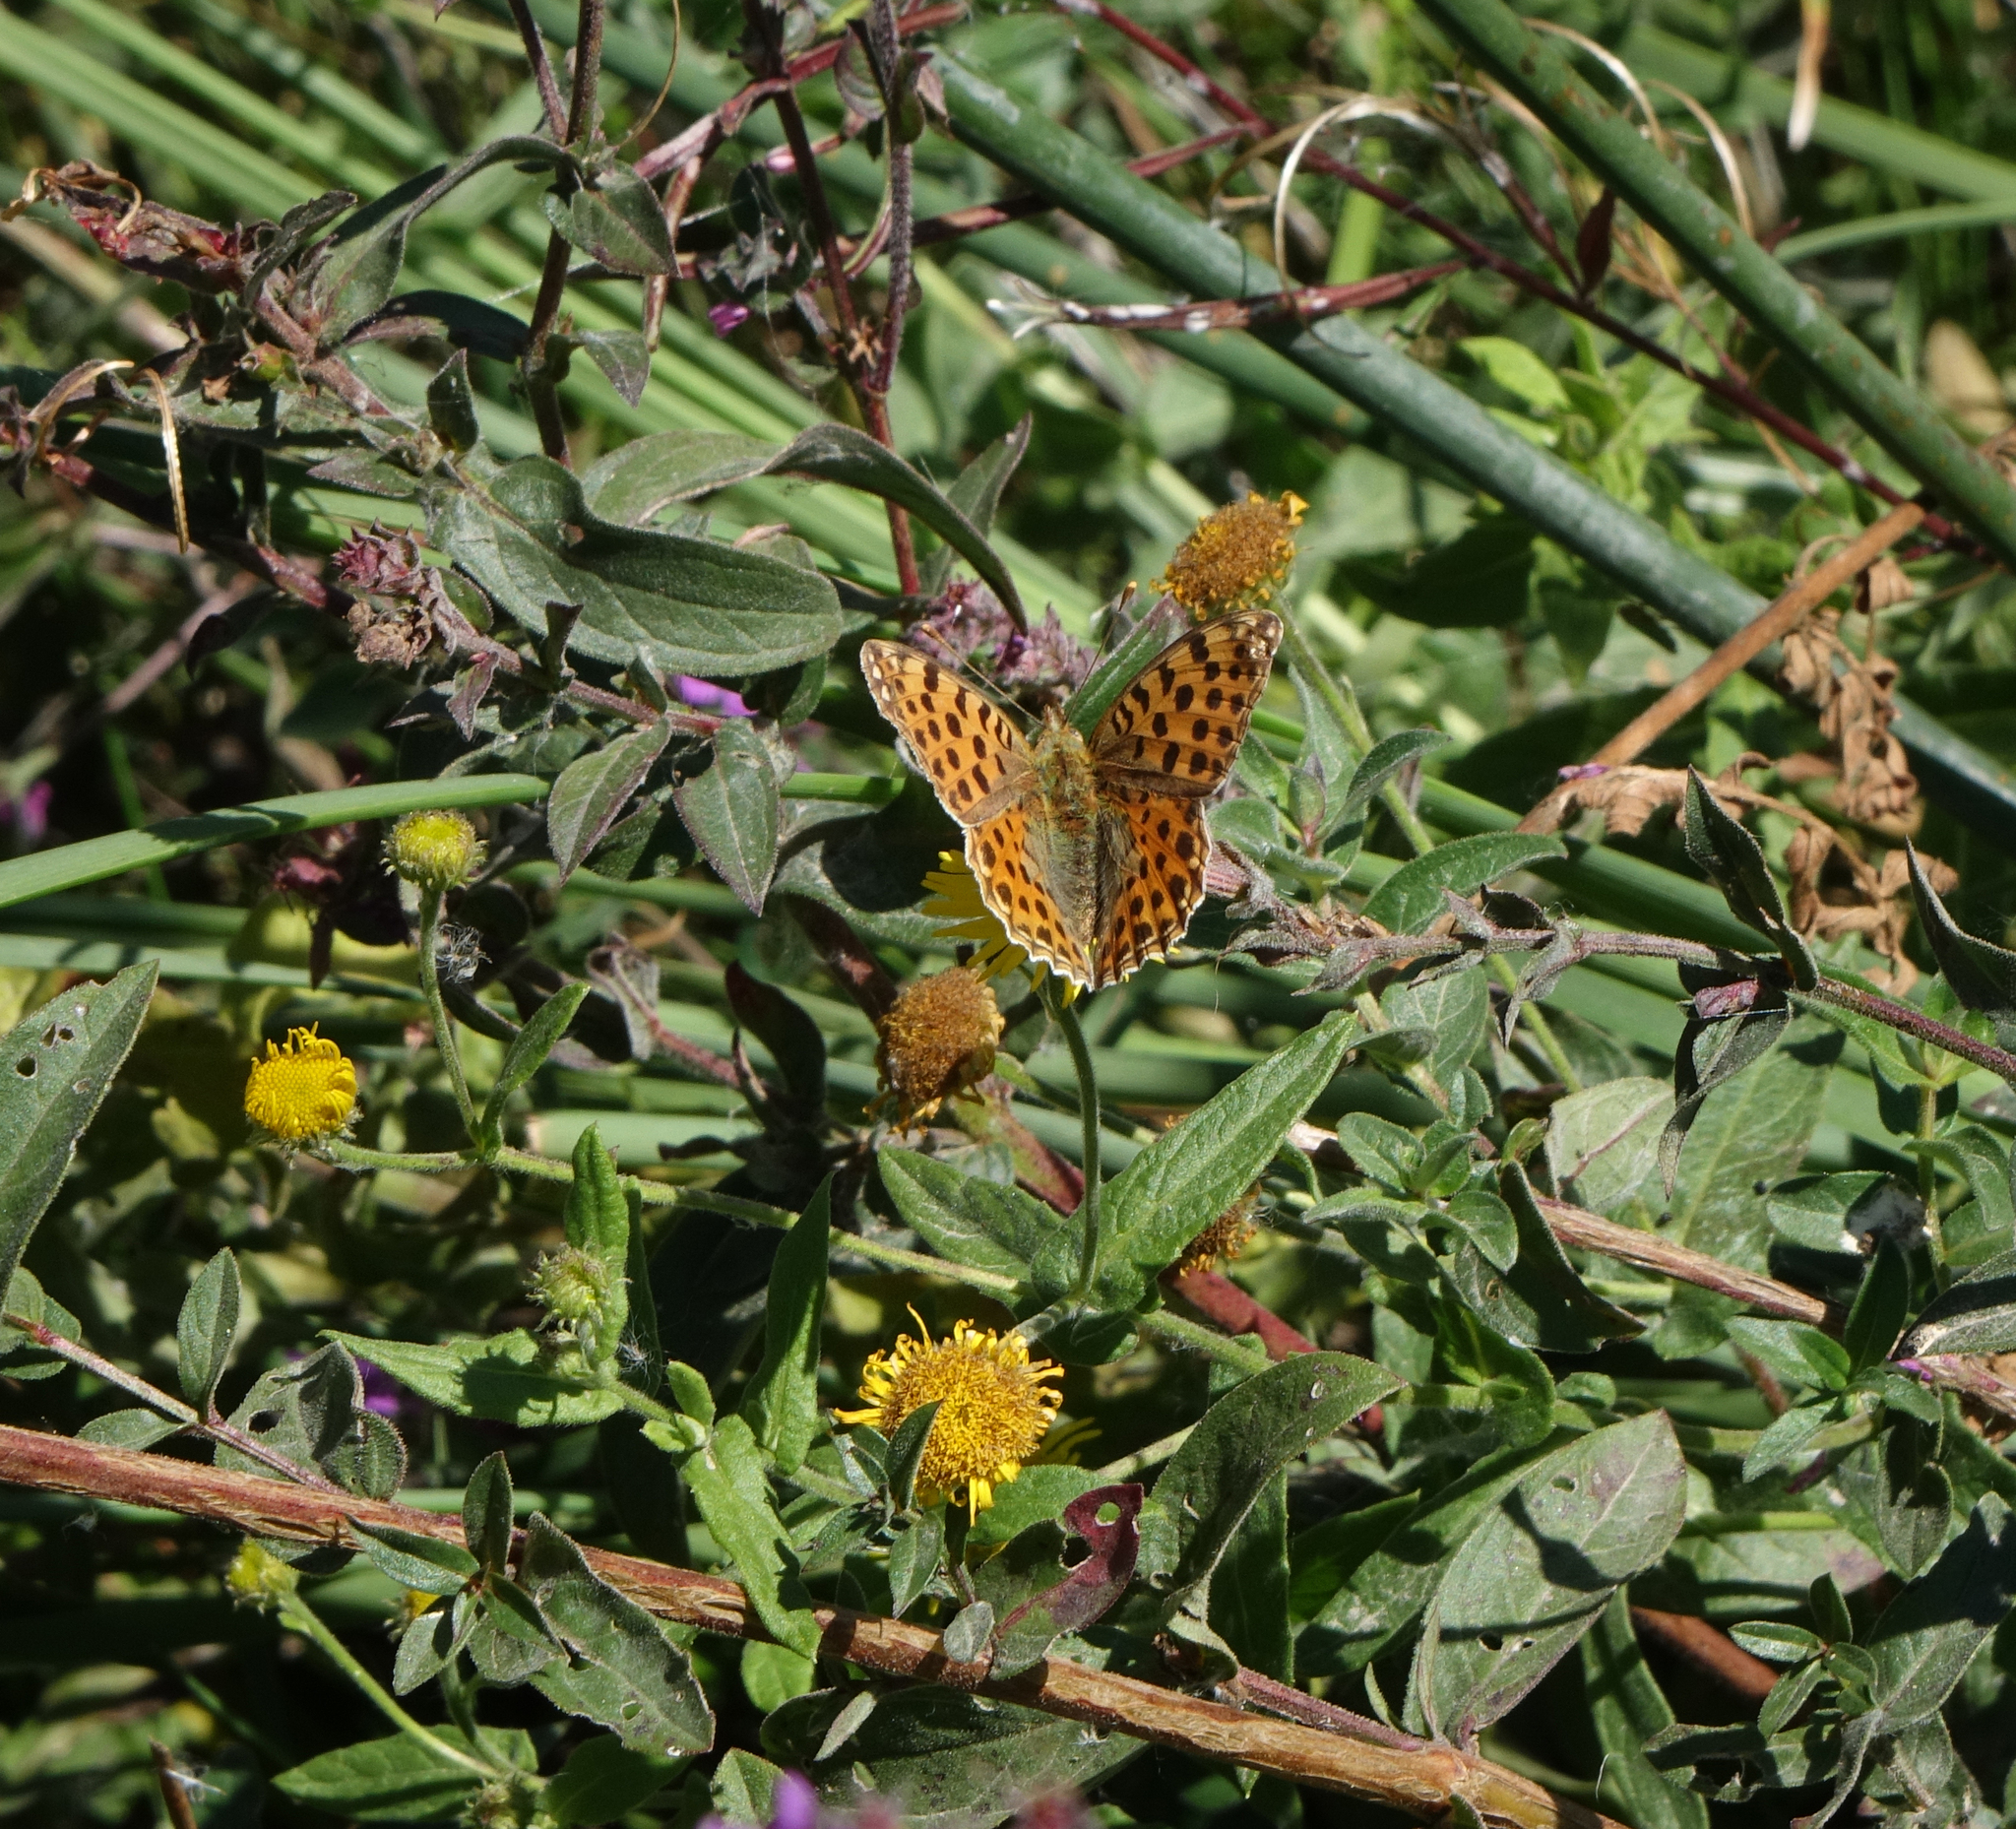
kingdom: Animalia
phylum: Arthropoda
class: Insecta
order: Lepidoptera
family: Nymphalidae
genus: Issoria
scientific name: Issoria lathonia
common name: Queen of spain fritillary
